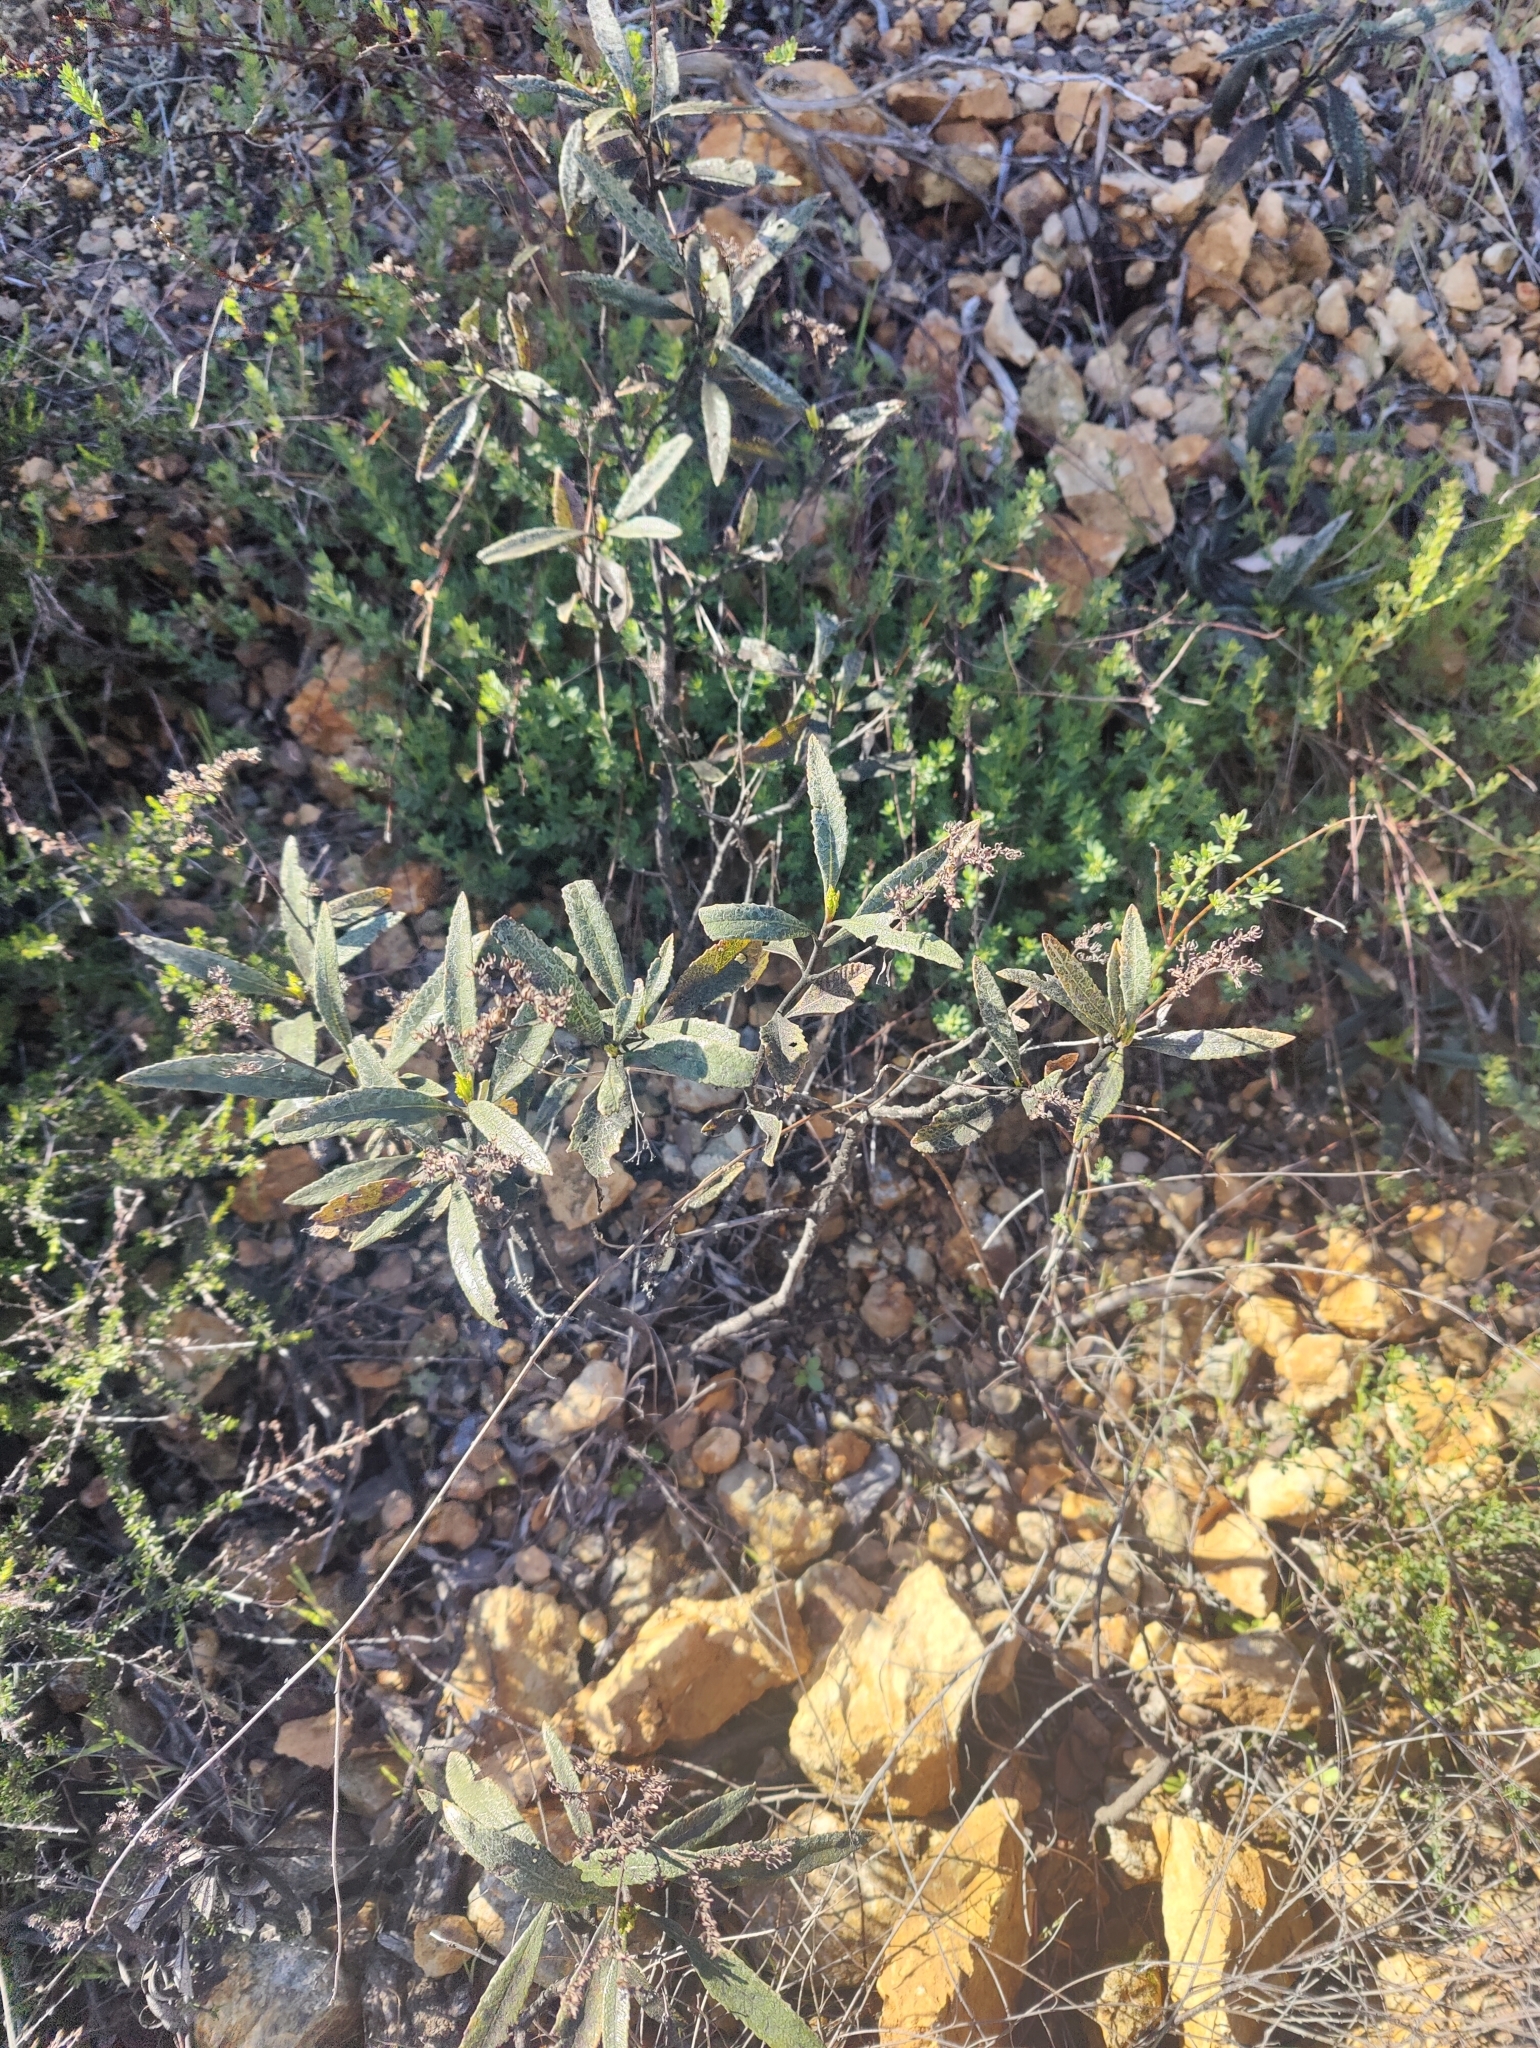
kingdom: Plantae
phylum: Tracheophyta
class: Magnoliopsida
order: Boraginales
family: Namaceae
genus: Eriodictyon
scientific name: Eriodictyon californicum
